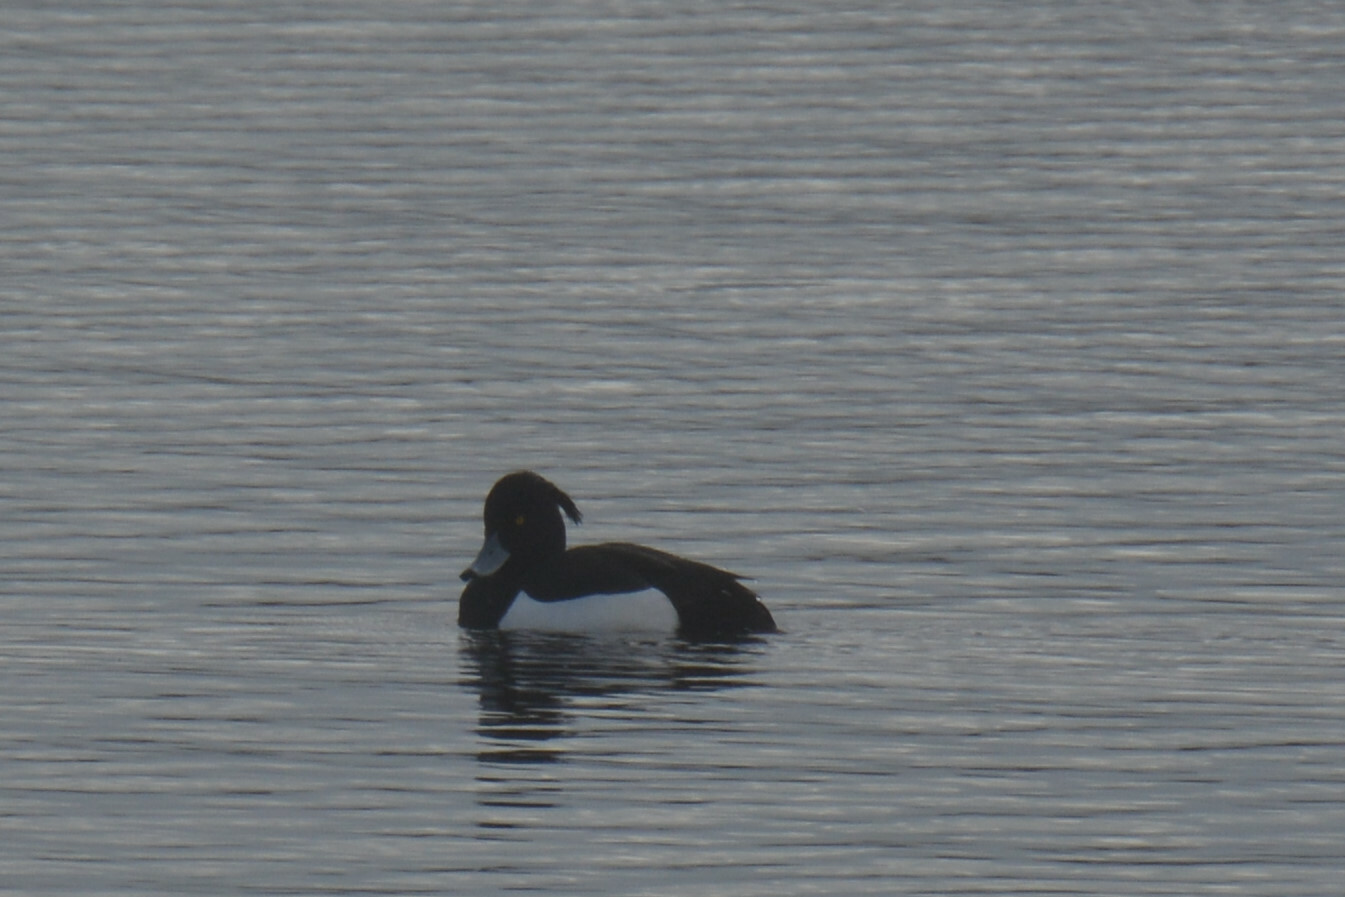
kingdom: Animalia
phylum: Chordata
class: Aves
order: Anseriformes
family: Anatidae
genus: Aythya
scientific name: Aythya fuligula
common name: Tufted duck
